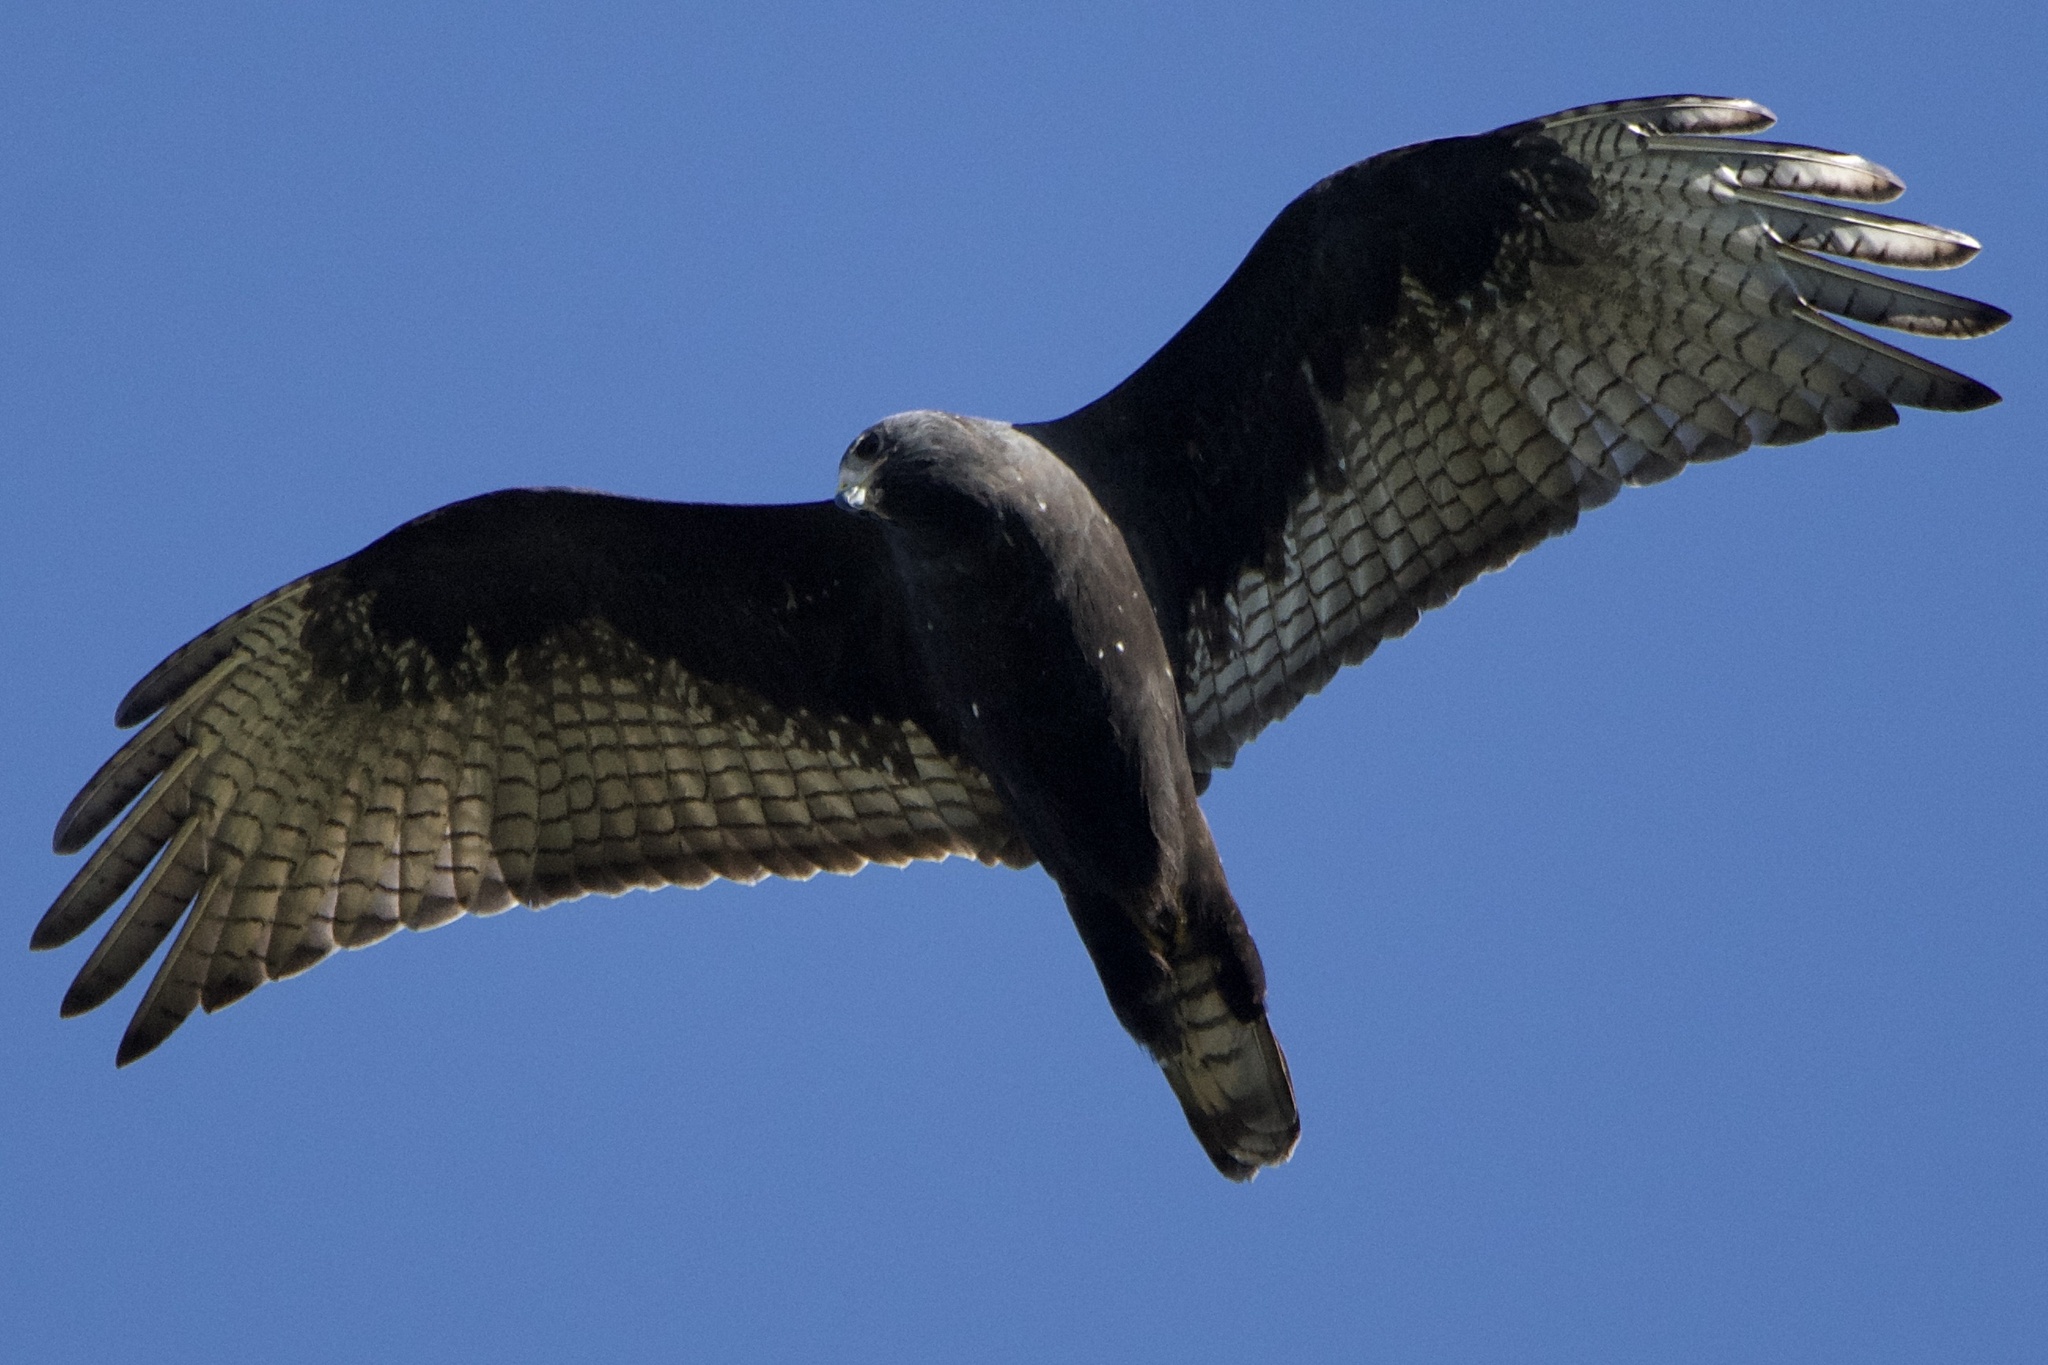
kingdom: Animalia
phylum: Chordata
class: Aves
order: Accipitriformes
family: Accipitridae
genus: Buteo
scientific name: Buteo albonotatus
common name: Zone-tailed hawk
